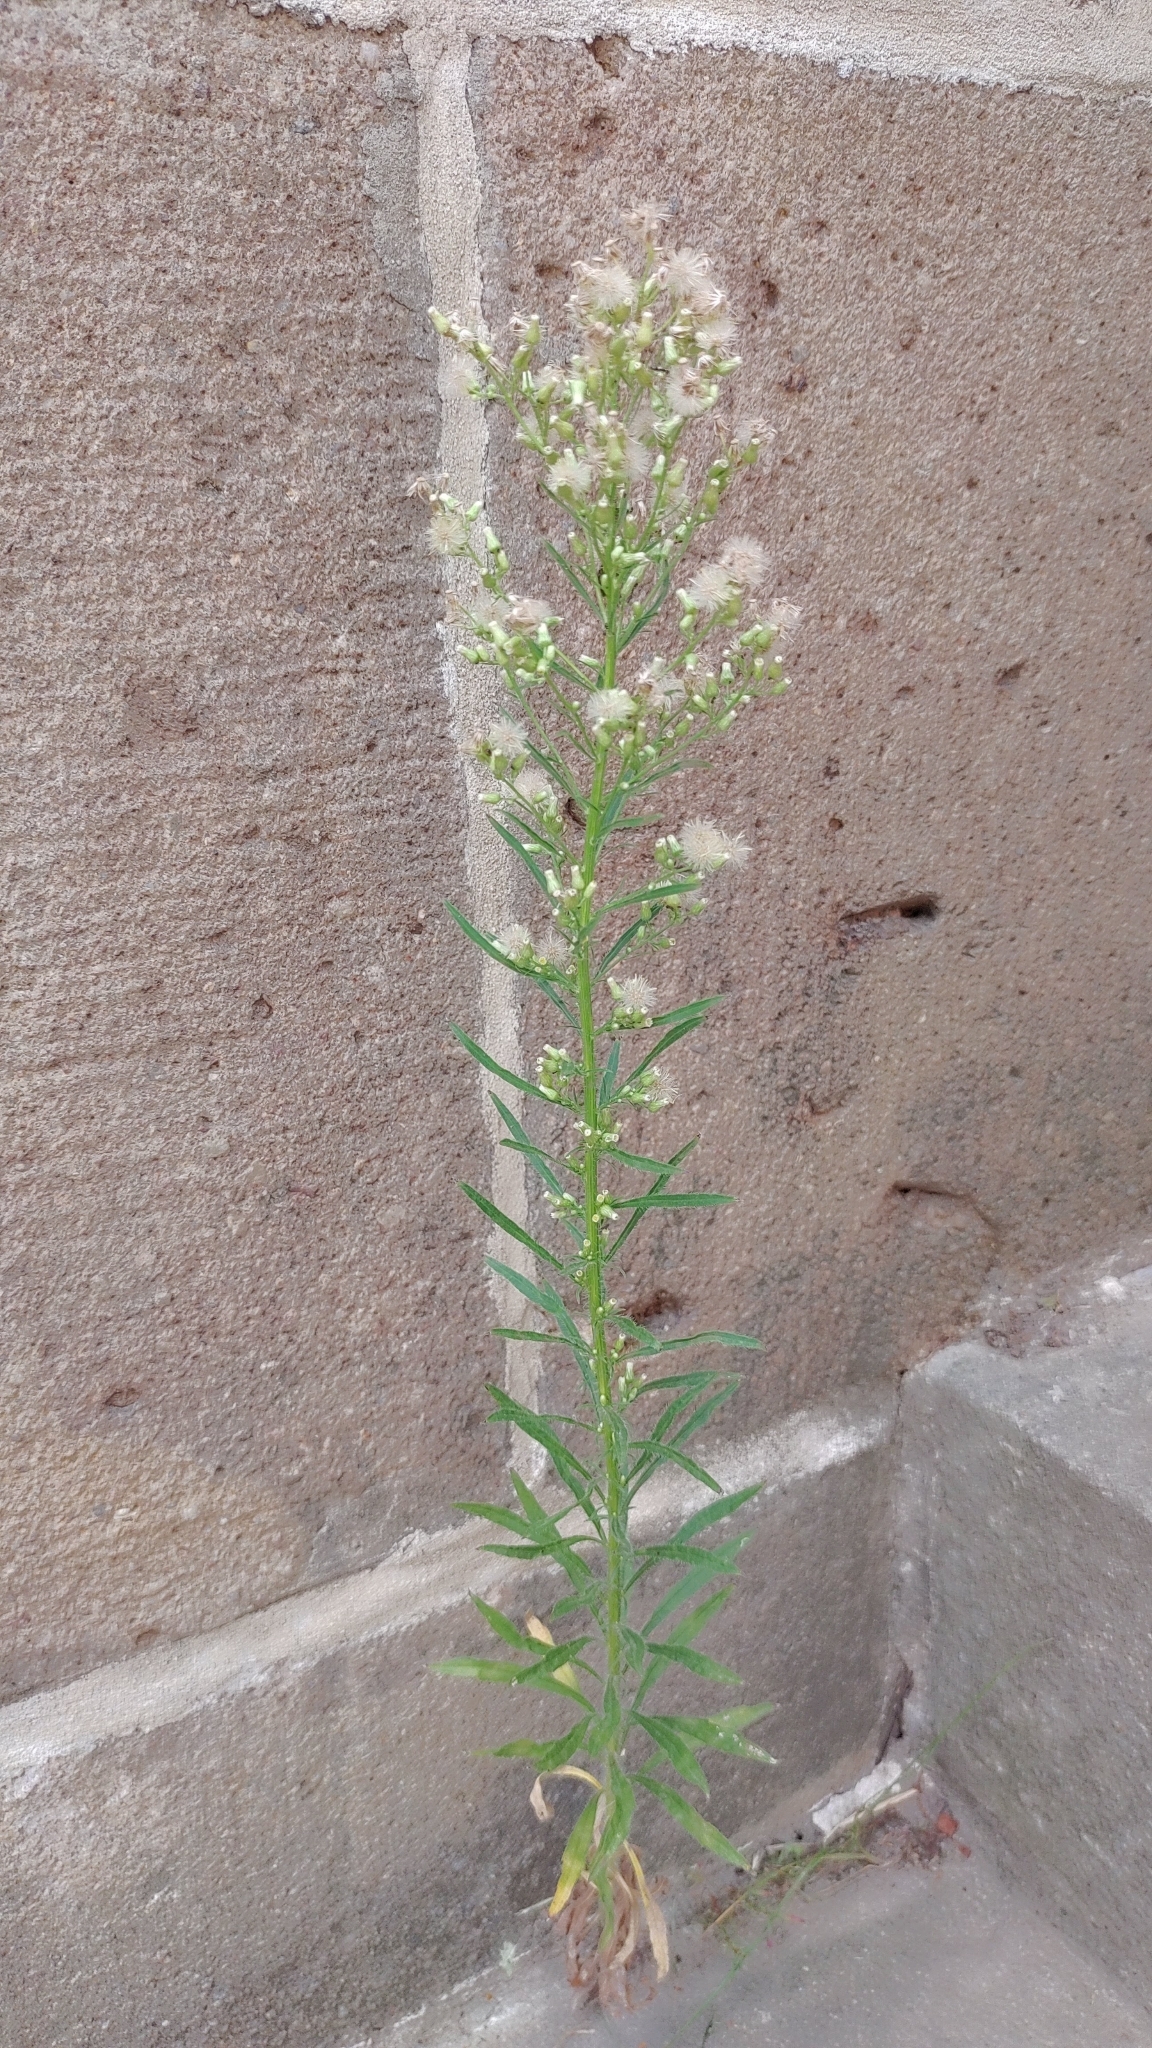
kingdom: Plantae
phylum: Tracheophyta
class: Magnoliopsida
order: Asterales
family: Asteraceae
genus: Erigeron
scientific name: Erigeron canadensis
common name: Canadian fleabane
